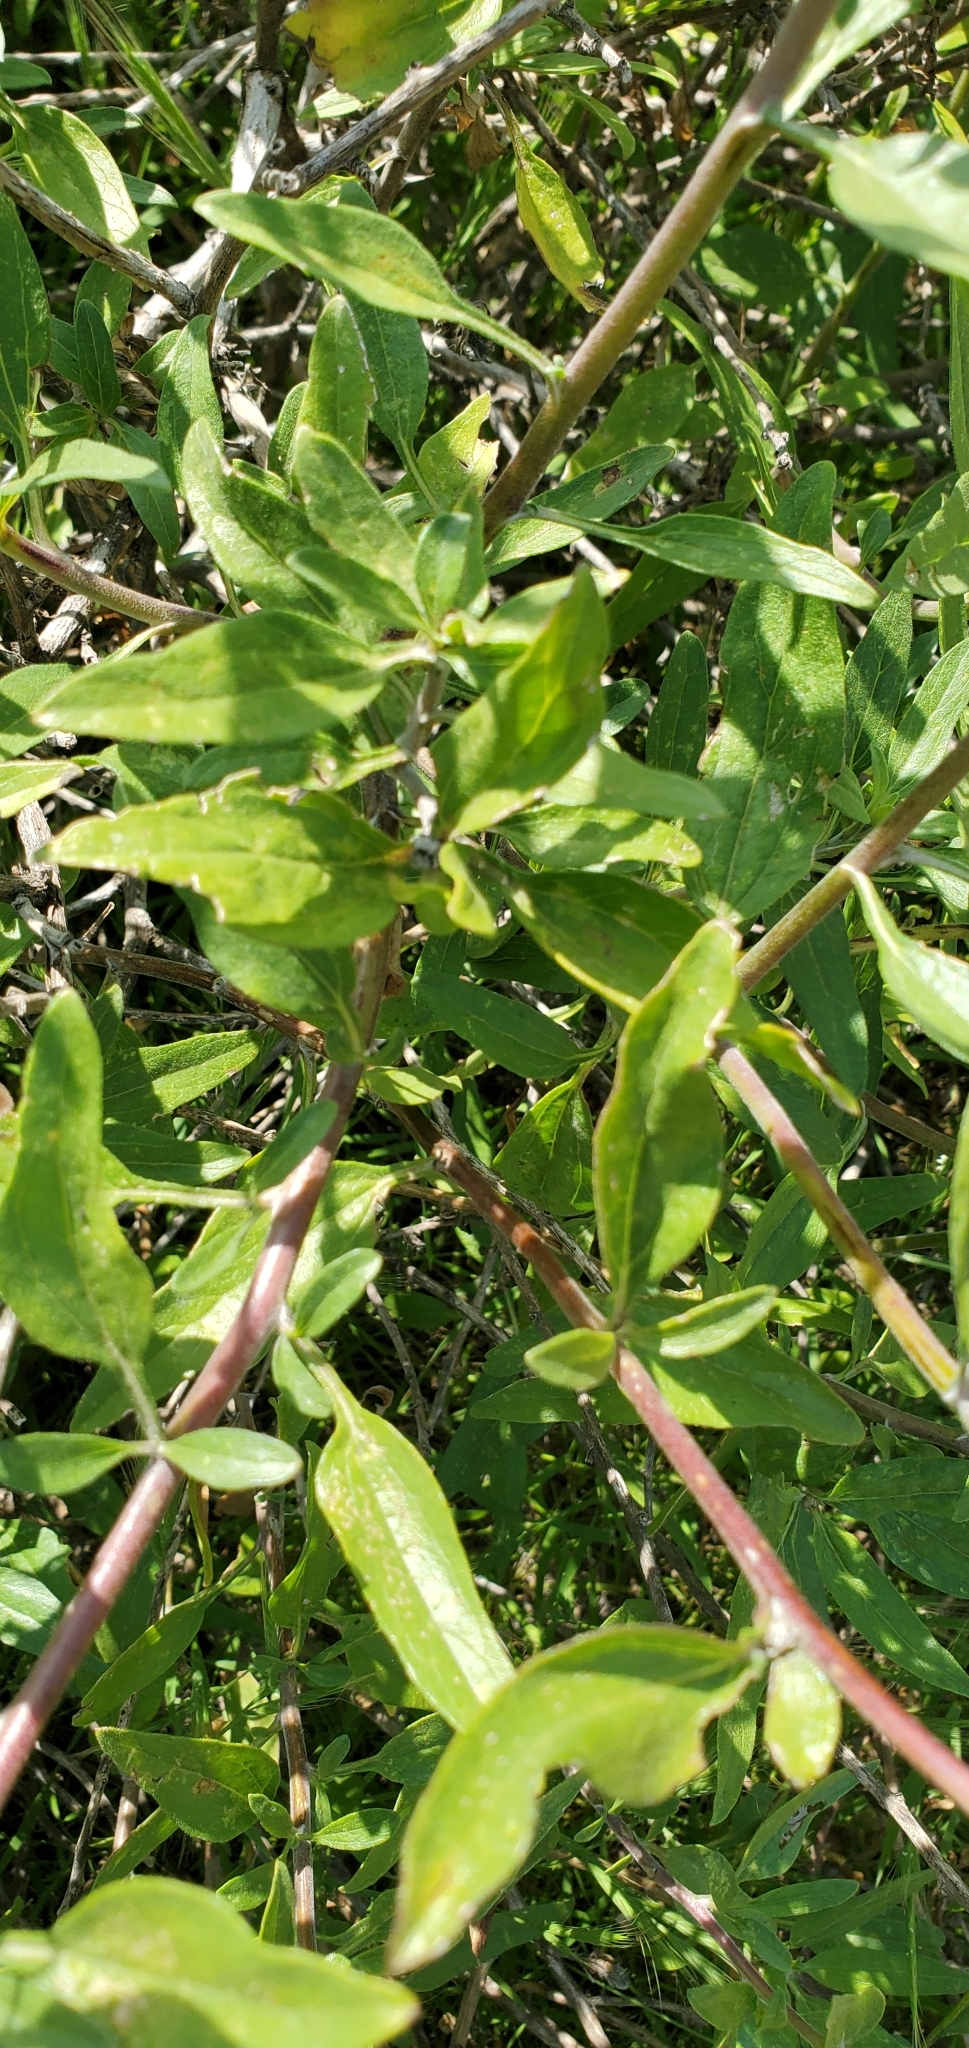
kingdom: Plantae
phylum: Tracheophyta
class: Magnoliopsida
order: Asterales
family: Asteraceae
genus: Encelia
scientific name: Encelia californica
